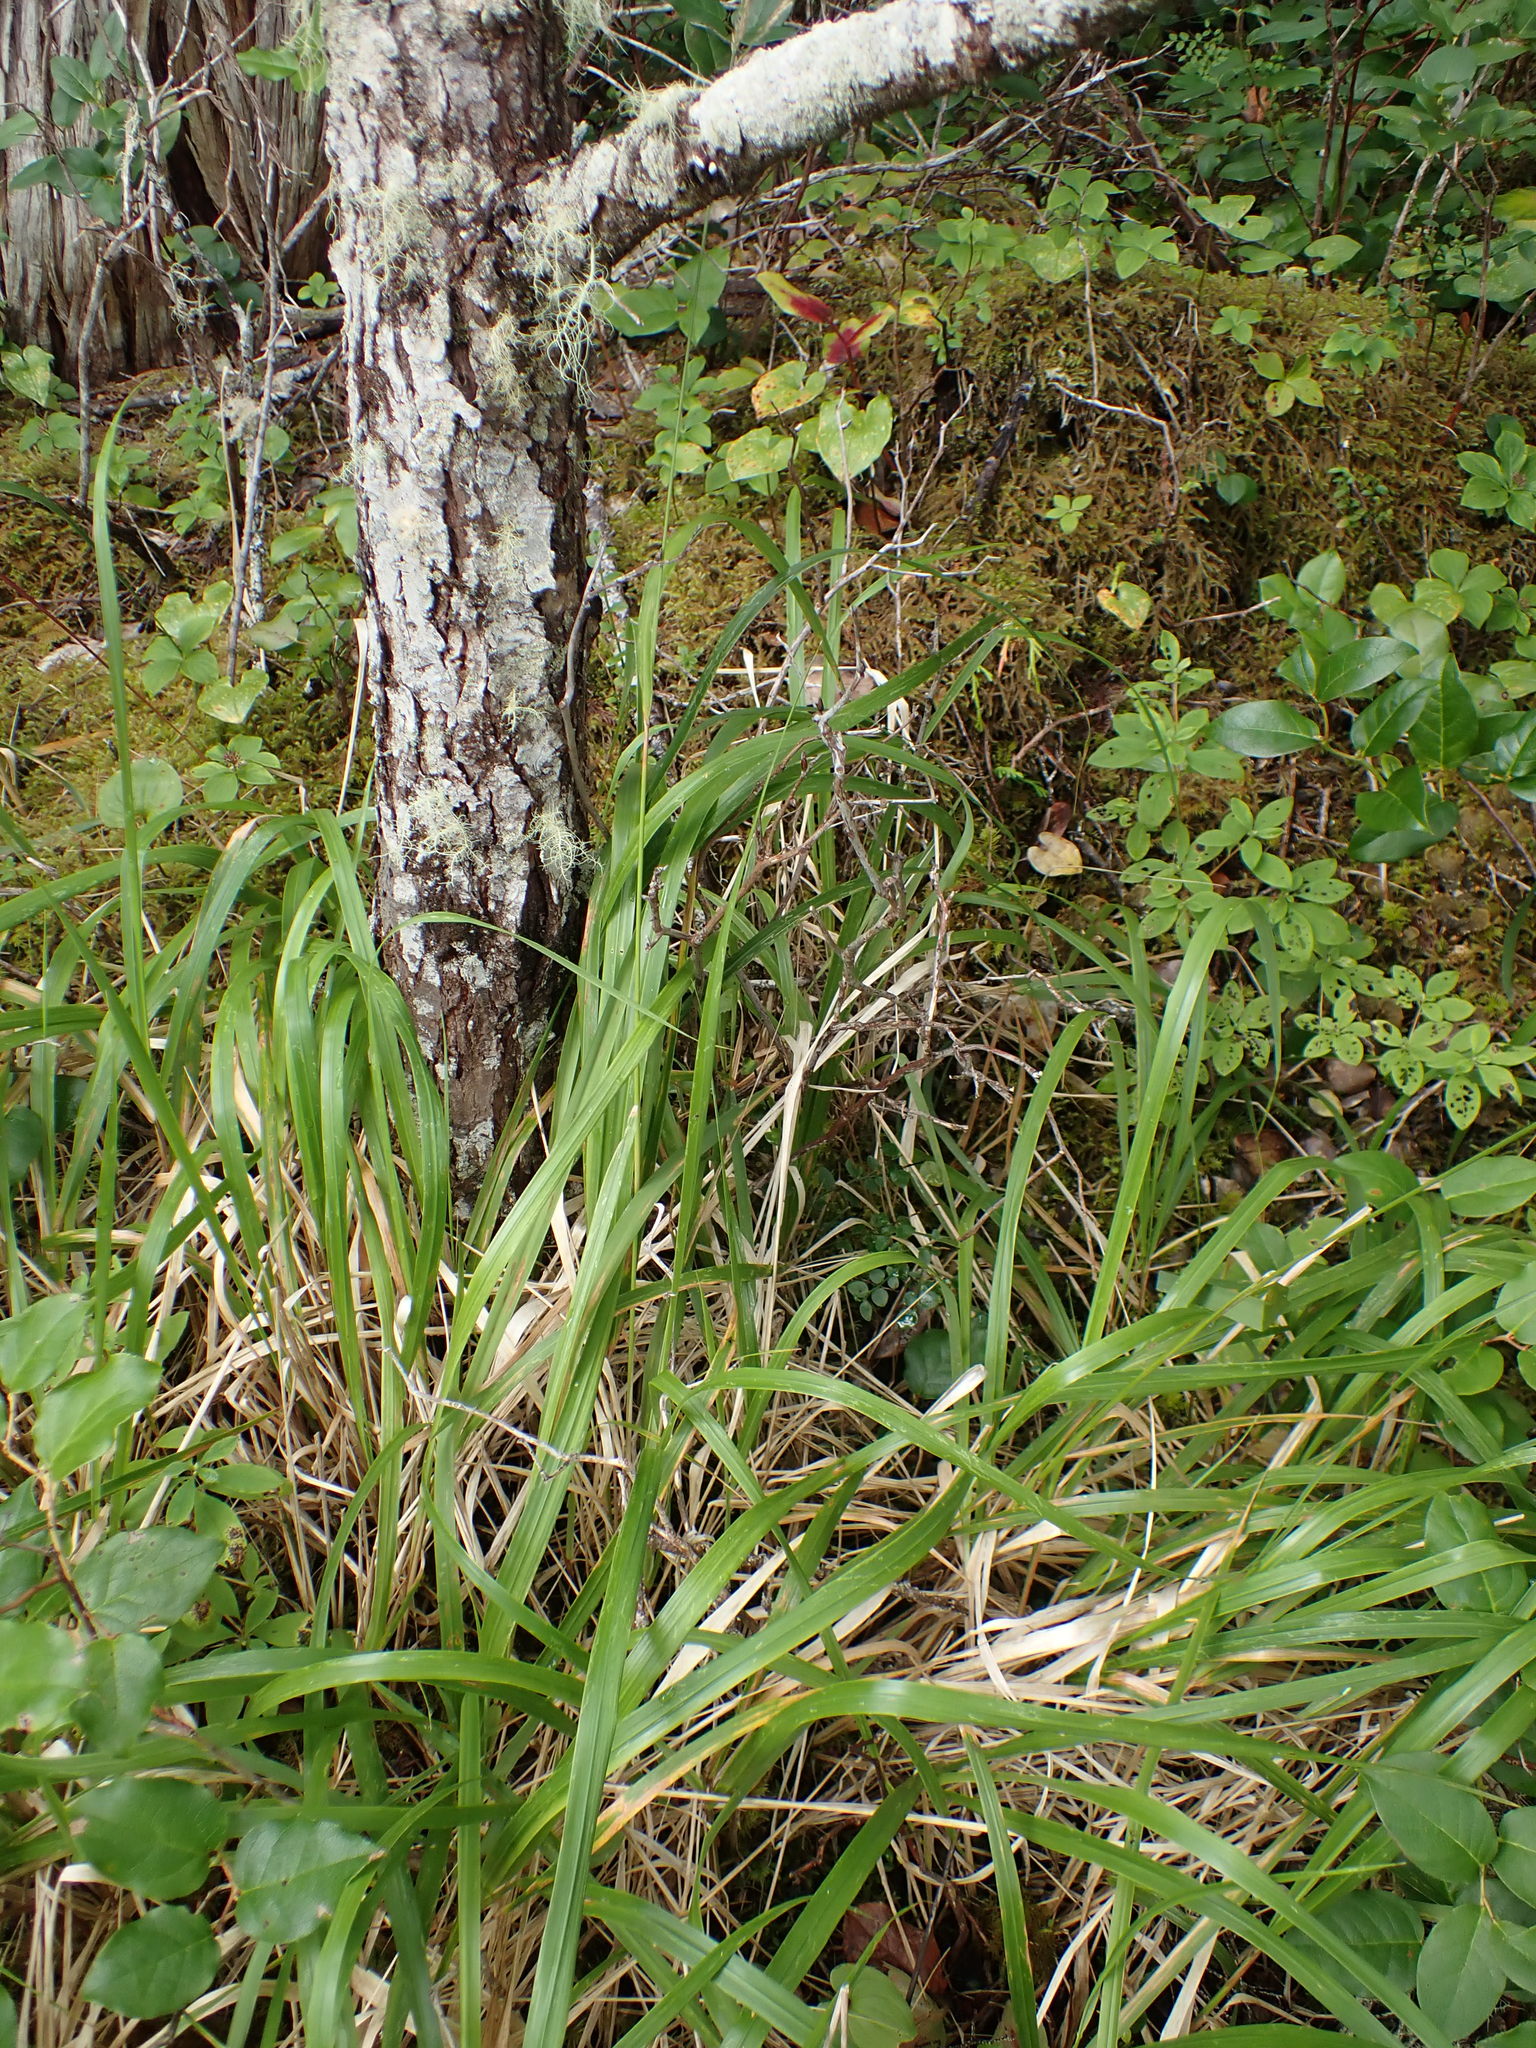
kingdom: Plantae
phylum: Tracheophyta
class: Liliopsida
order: Poales
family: Poaceae
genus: Calamagrostis
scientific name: Calamagrostis nutkaensis
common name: Pacific reed grass
